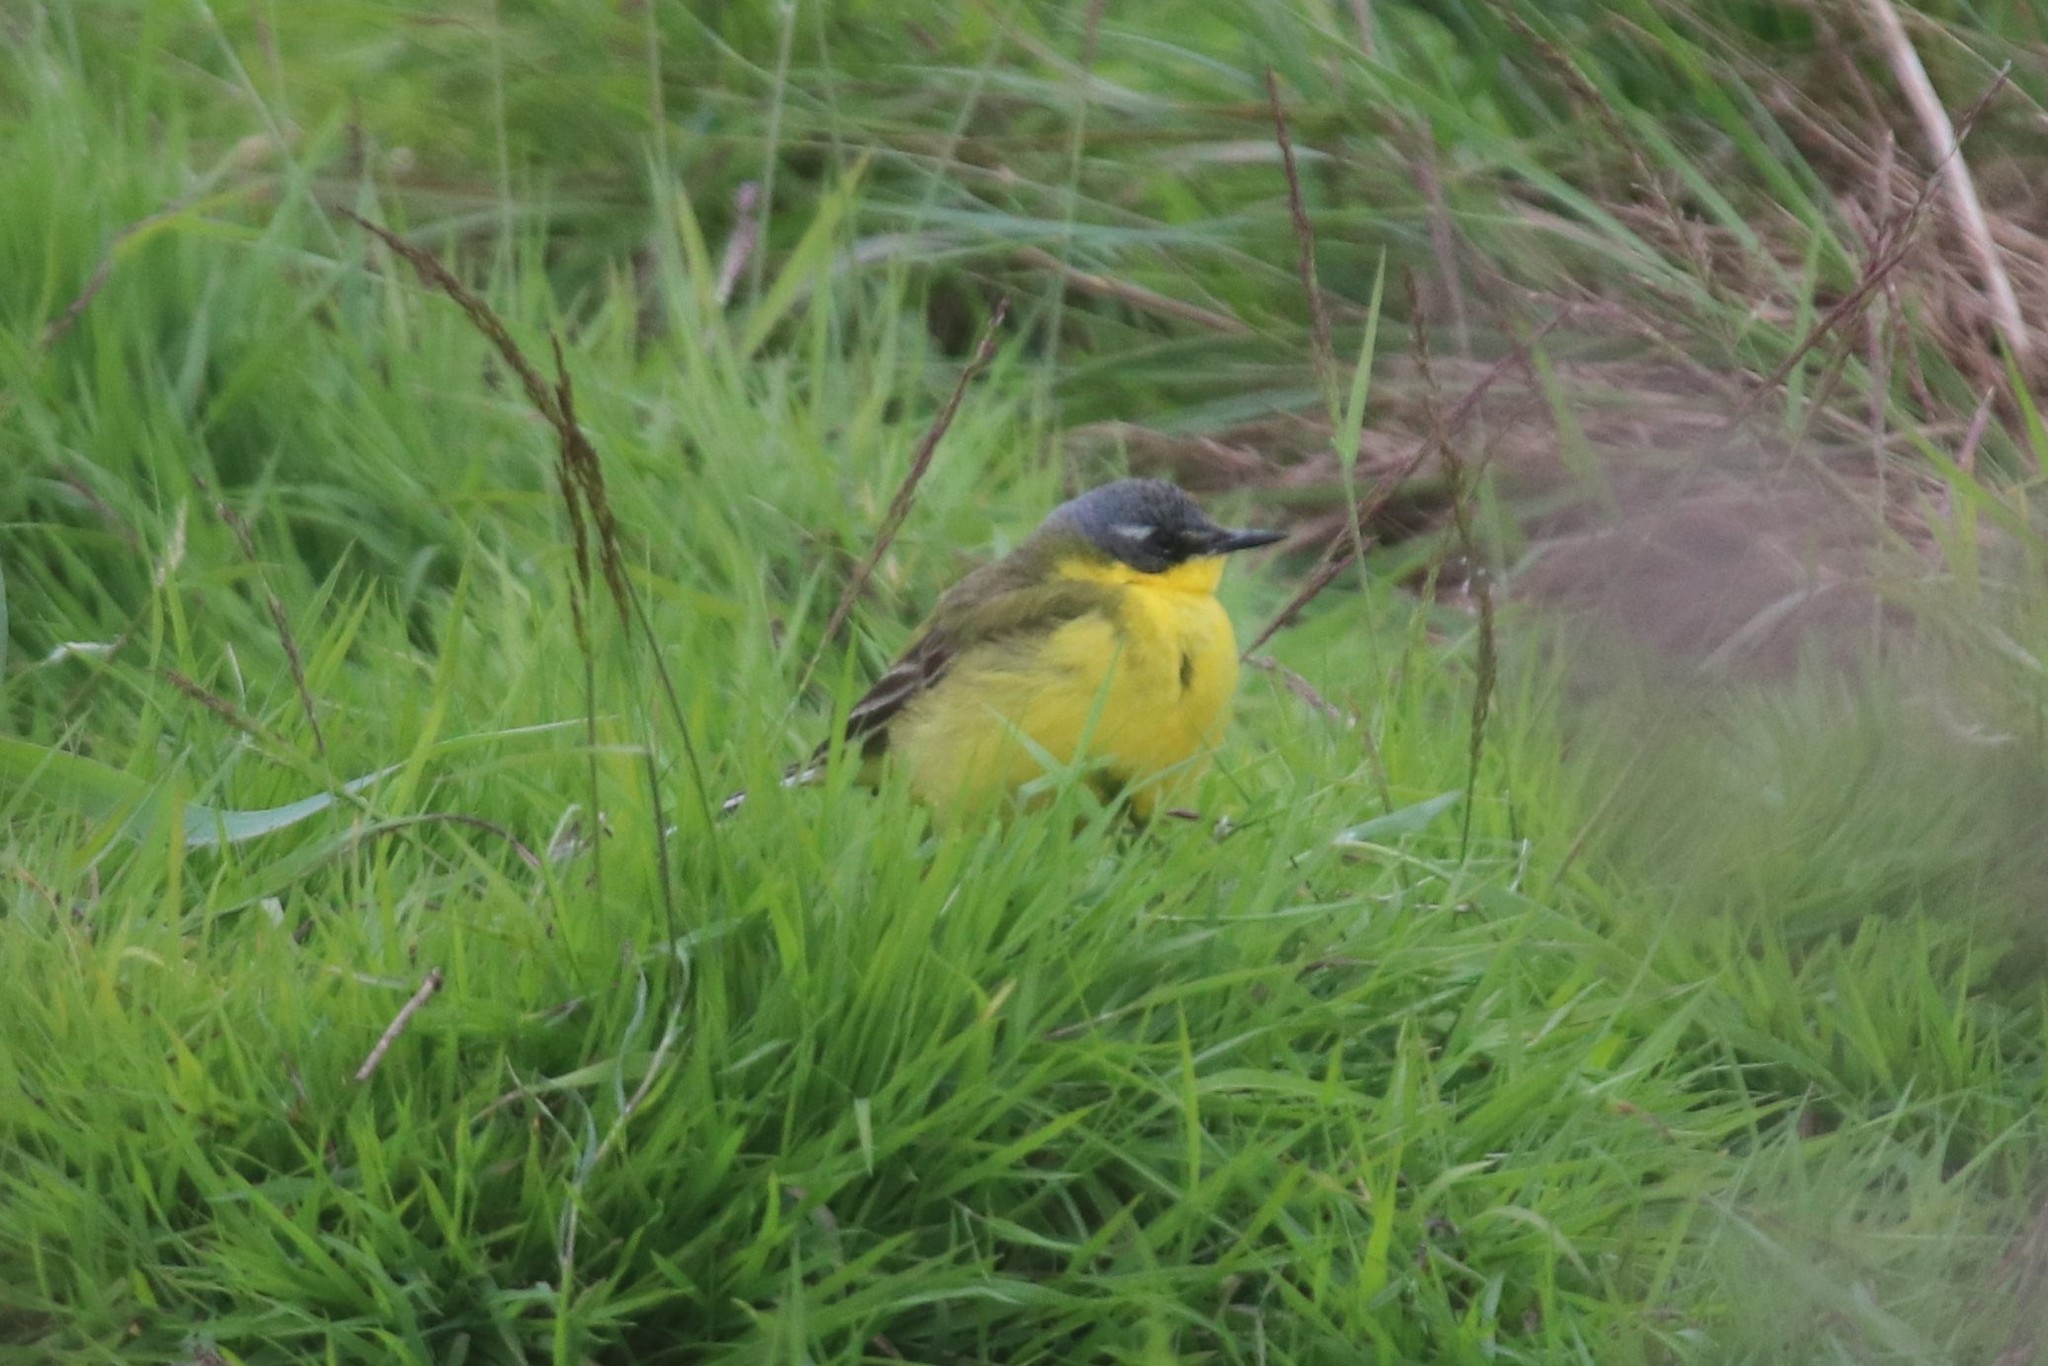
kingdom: Animalia
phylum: Chordata
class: Aves
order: Passeriformes
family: Motacillidae
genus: Motacilla
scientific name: Motacilla flava
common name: Western yellow wagtail
